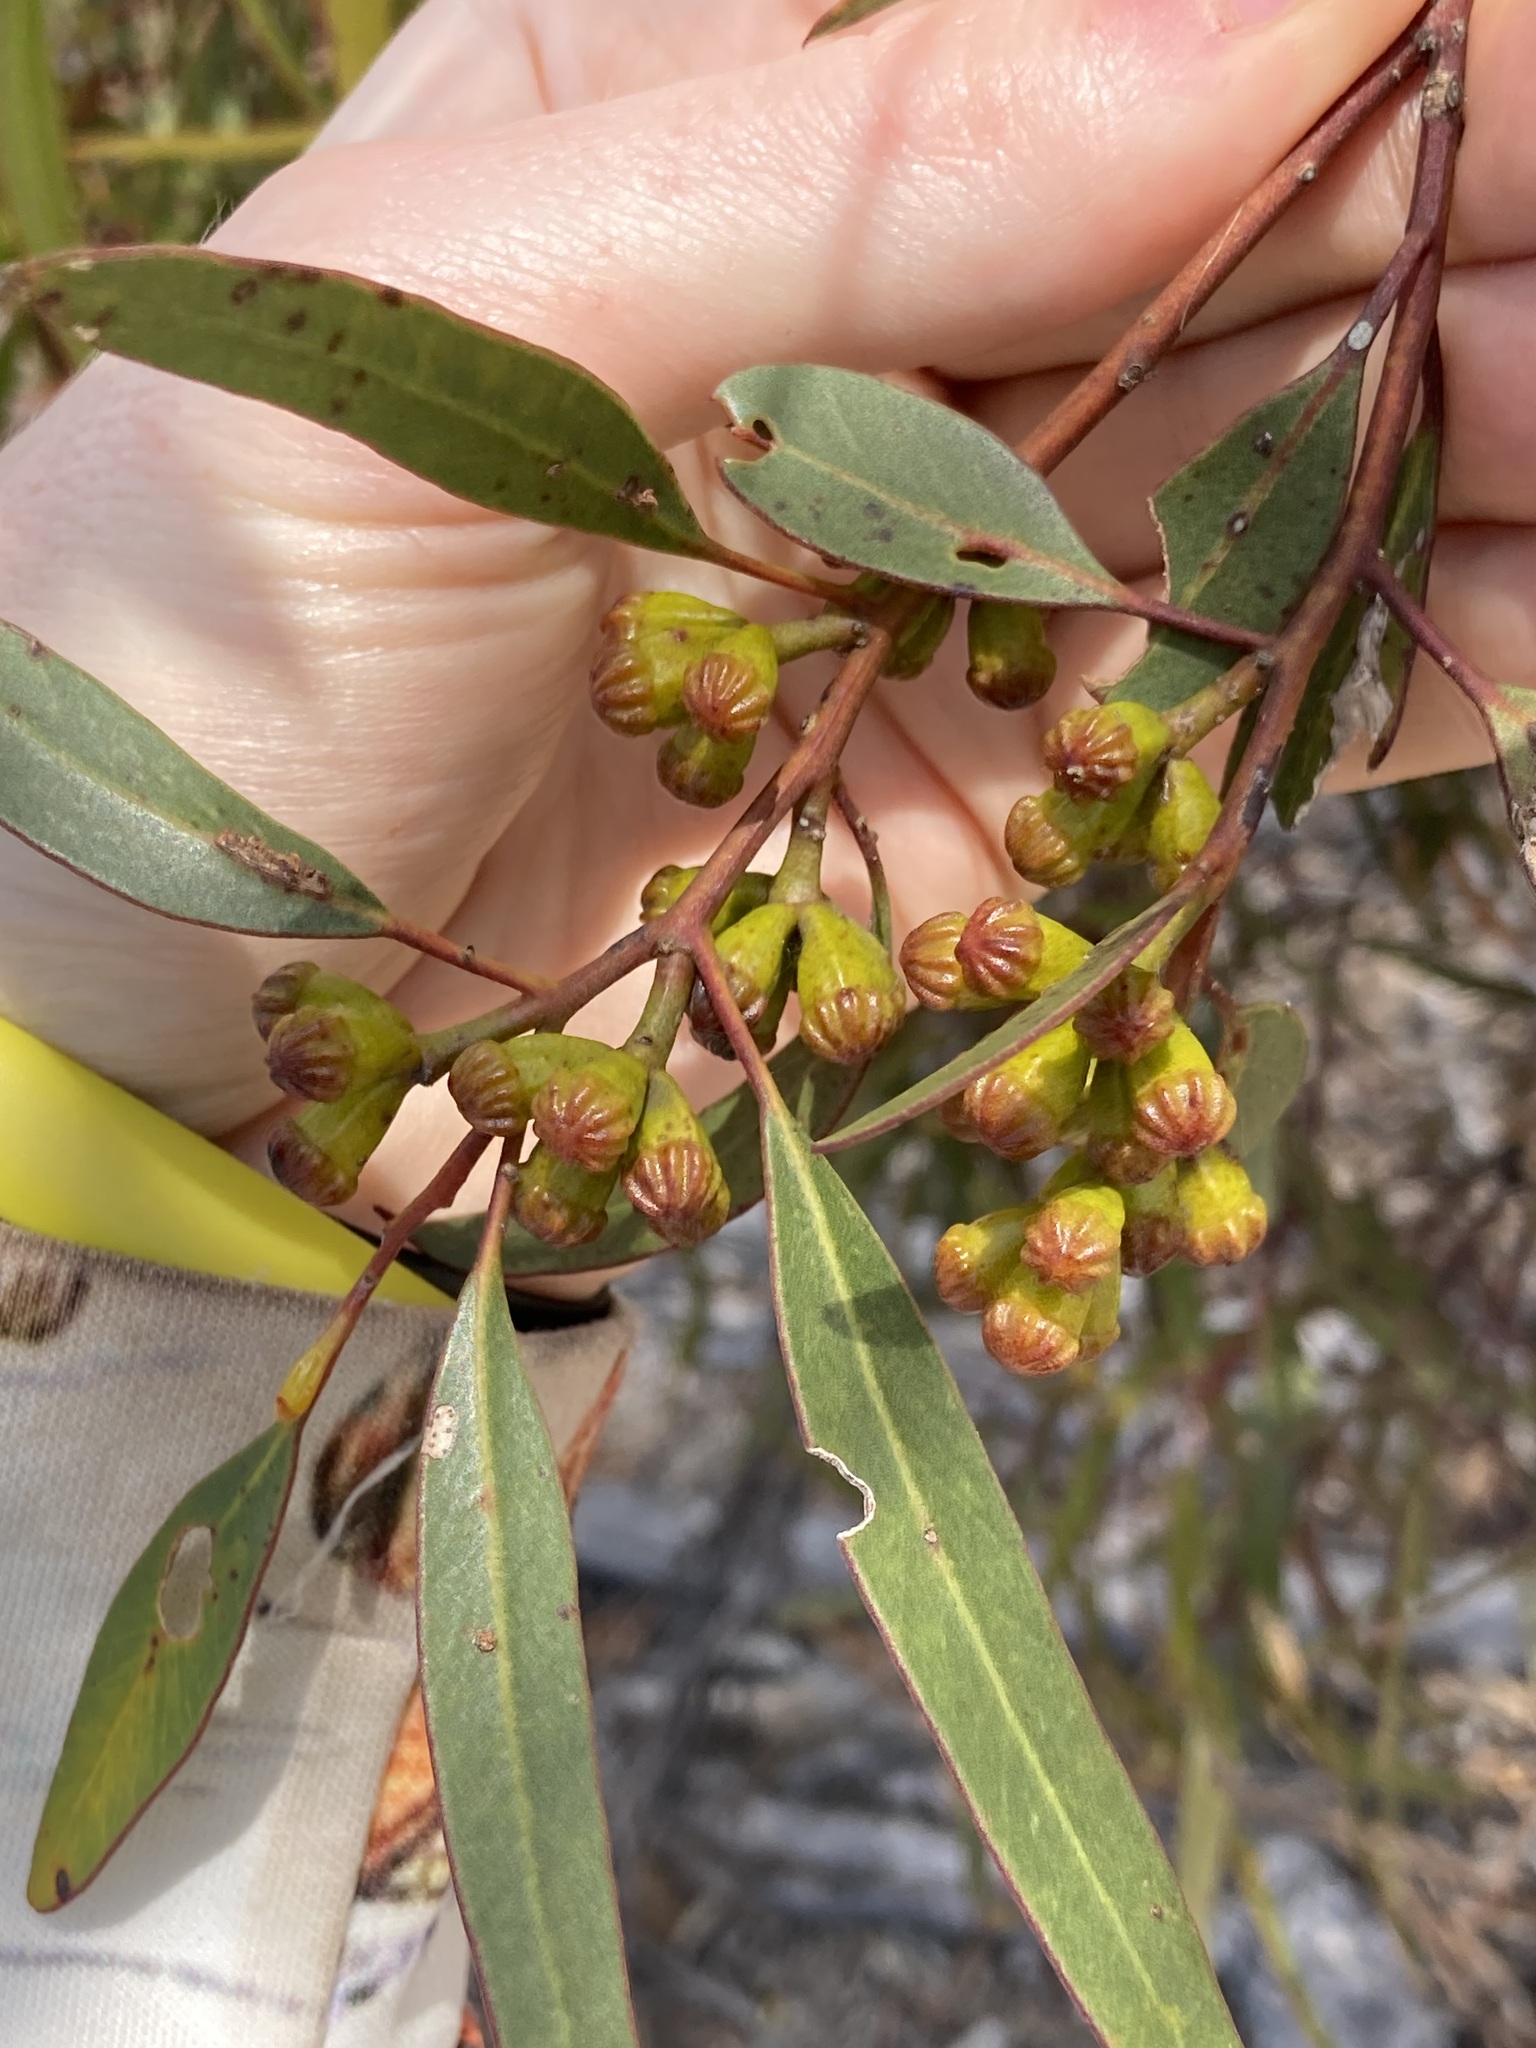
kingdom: Plantae
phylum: Tracheophyta
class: Magnoliopsida
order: Myrtales
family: Myrtaceae
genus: Eucalyptus
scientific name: Eucalyptus pileata
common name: Capped mallee
